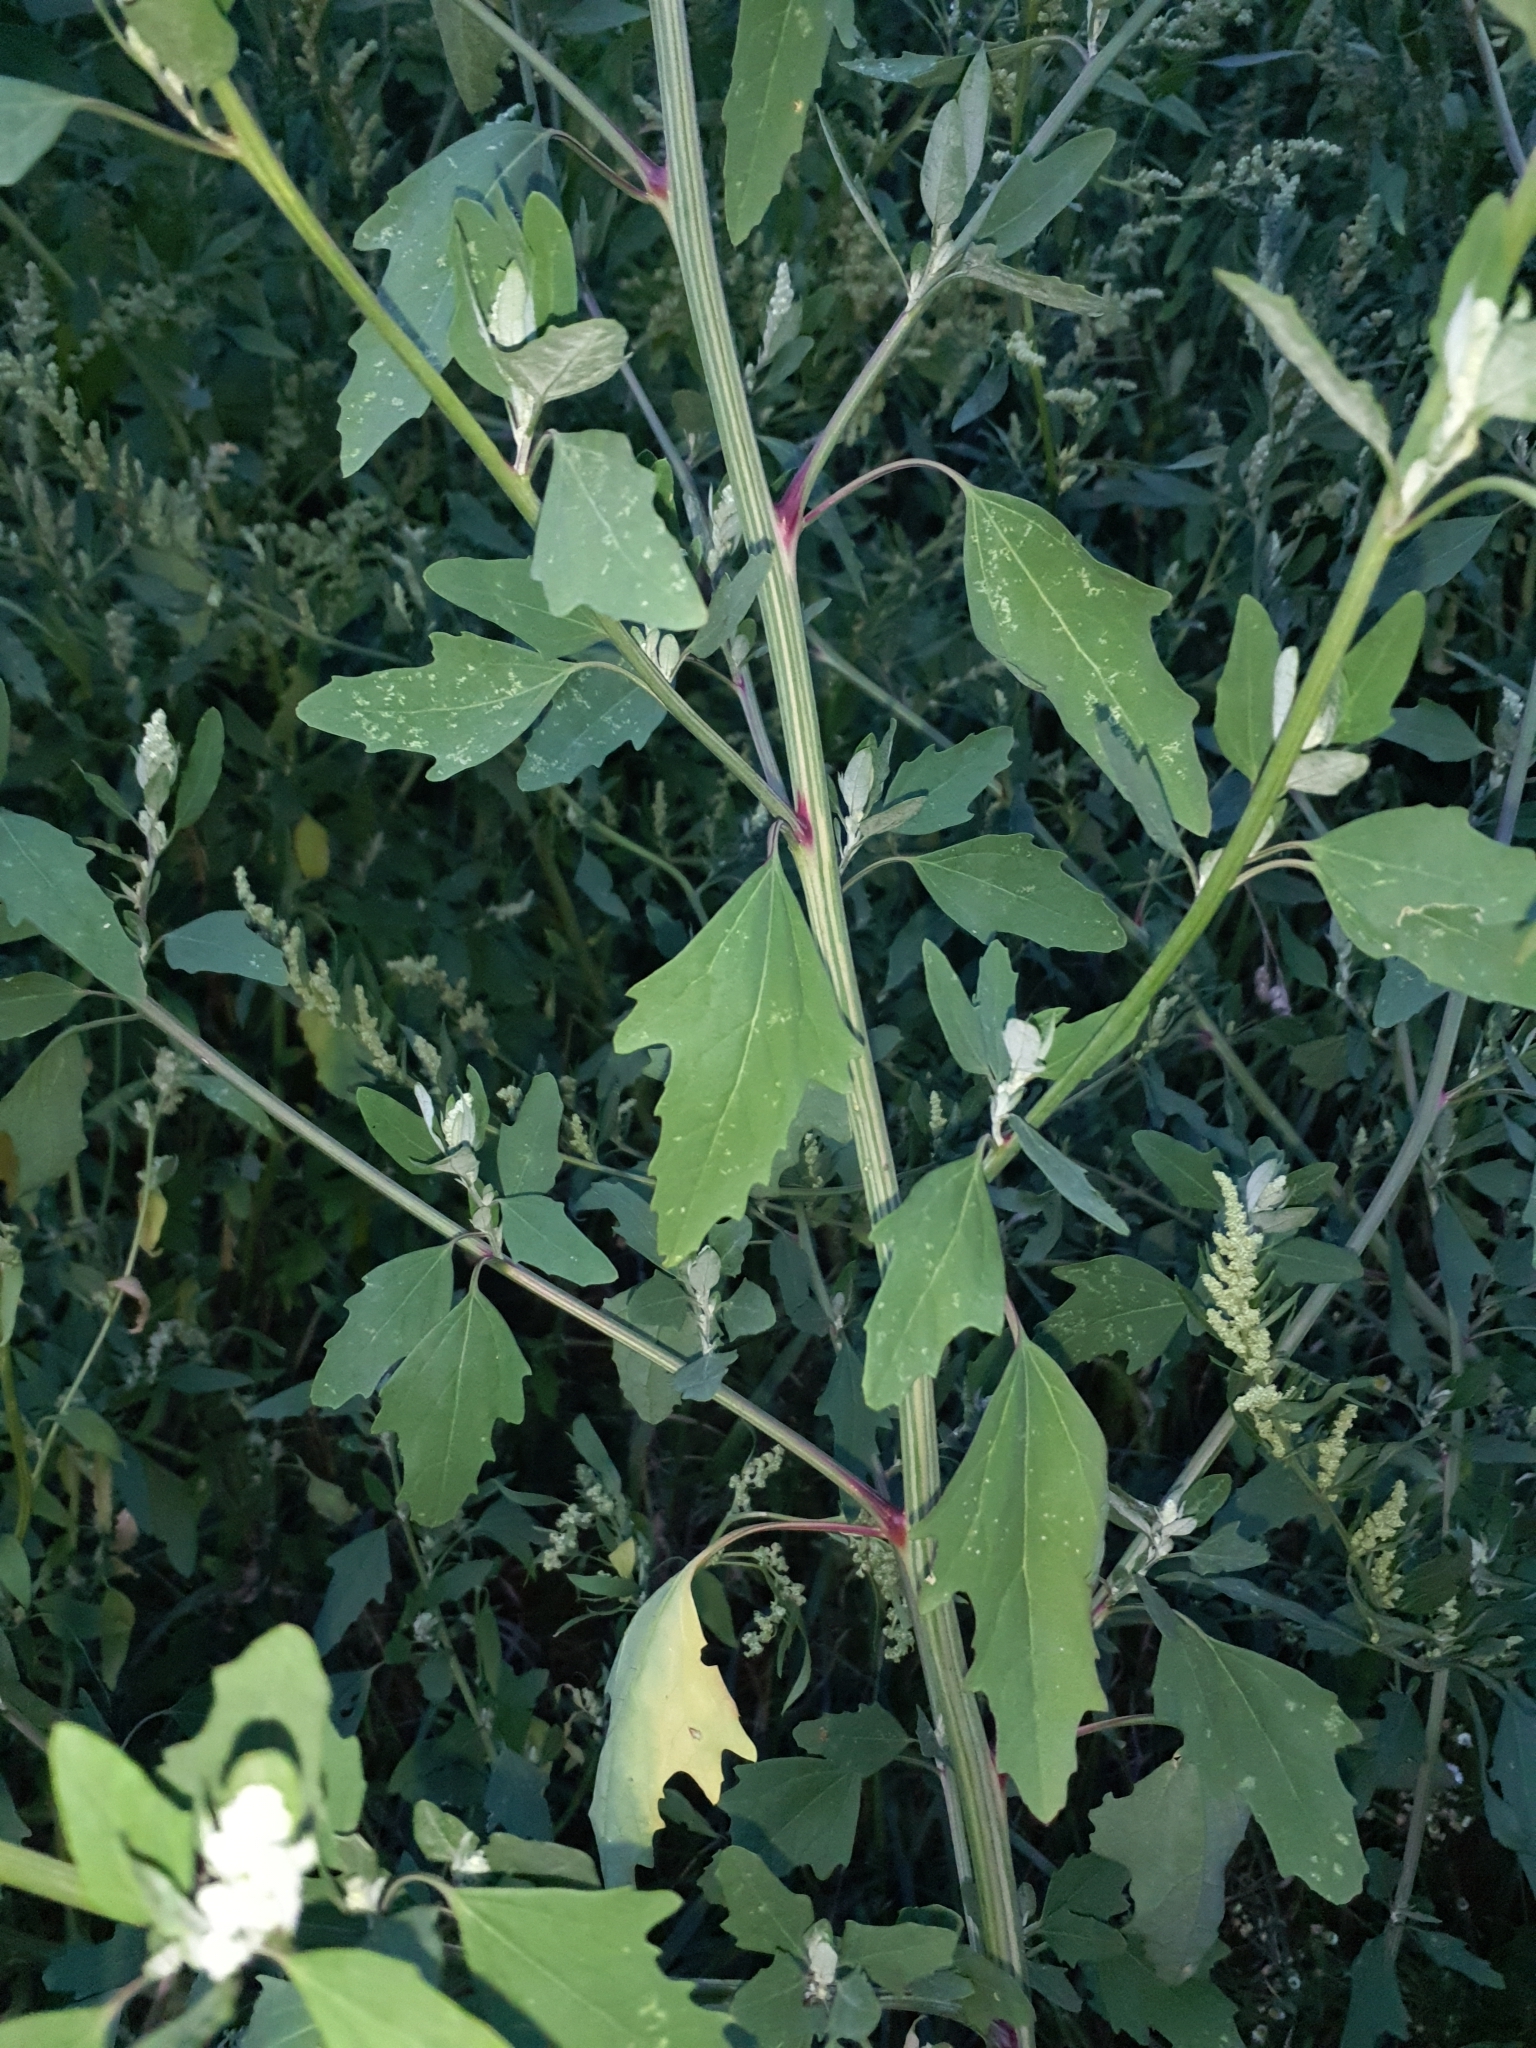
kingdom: Plantae
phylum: Tracheophyta
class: Magnoliopsida
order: Caryophyllales
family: Amaranthaceae
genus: Chenopodium
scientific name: Chenopodium ficifolium
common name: Fig-leaved goosefoot
